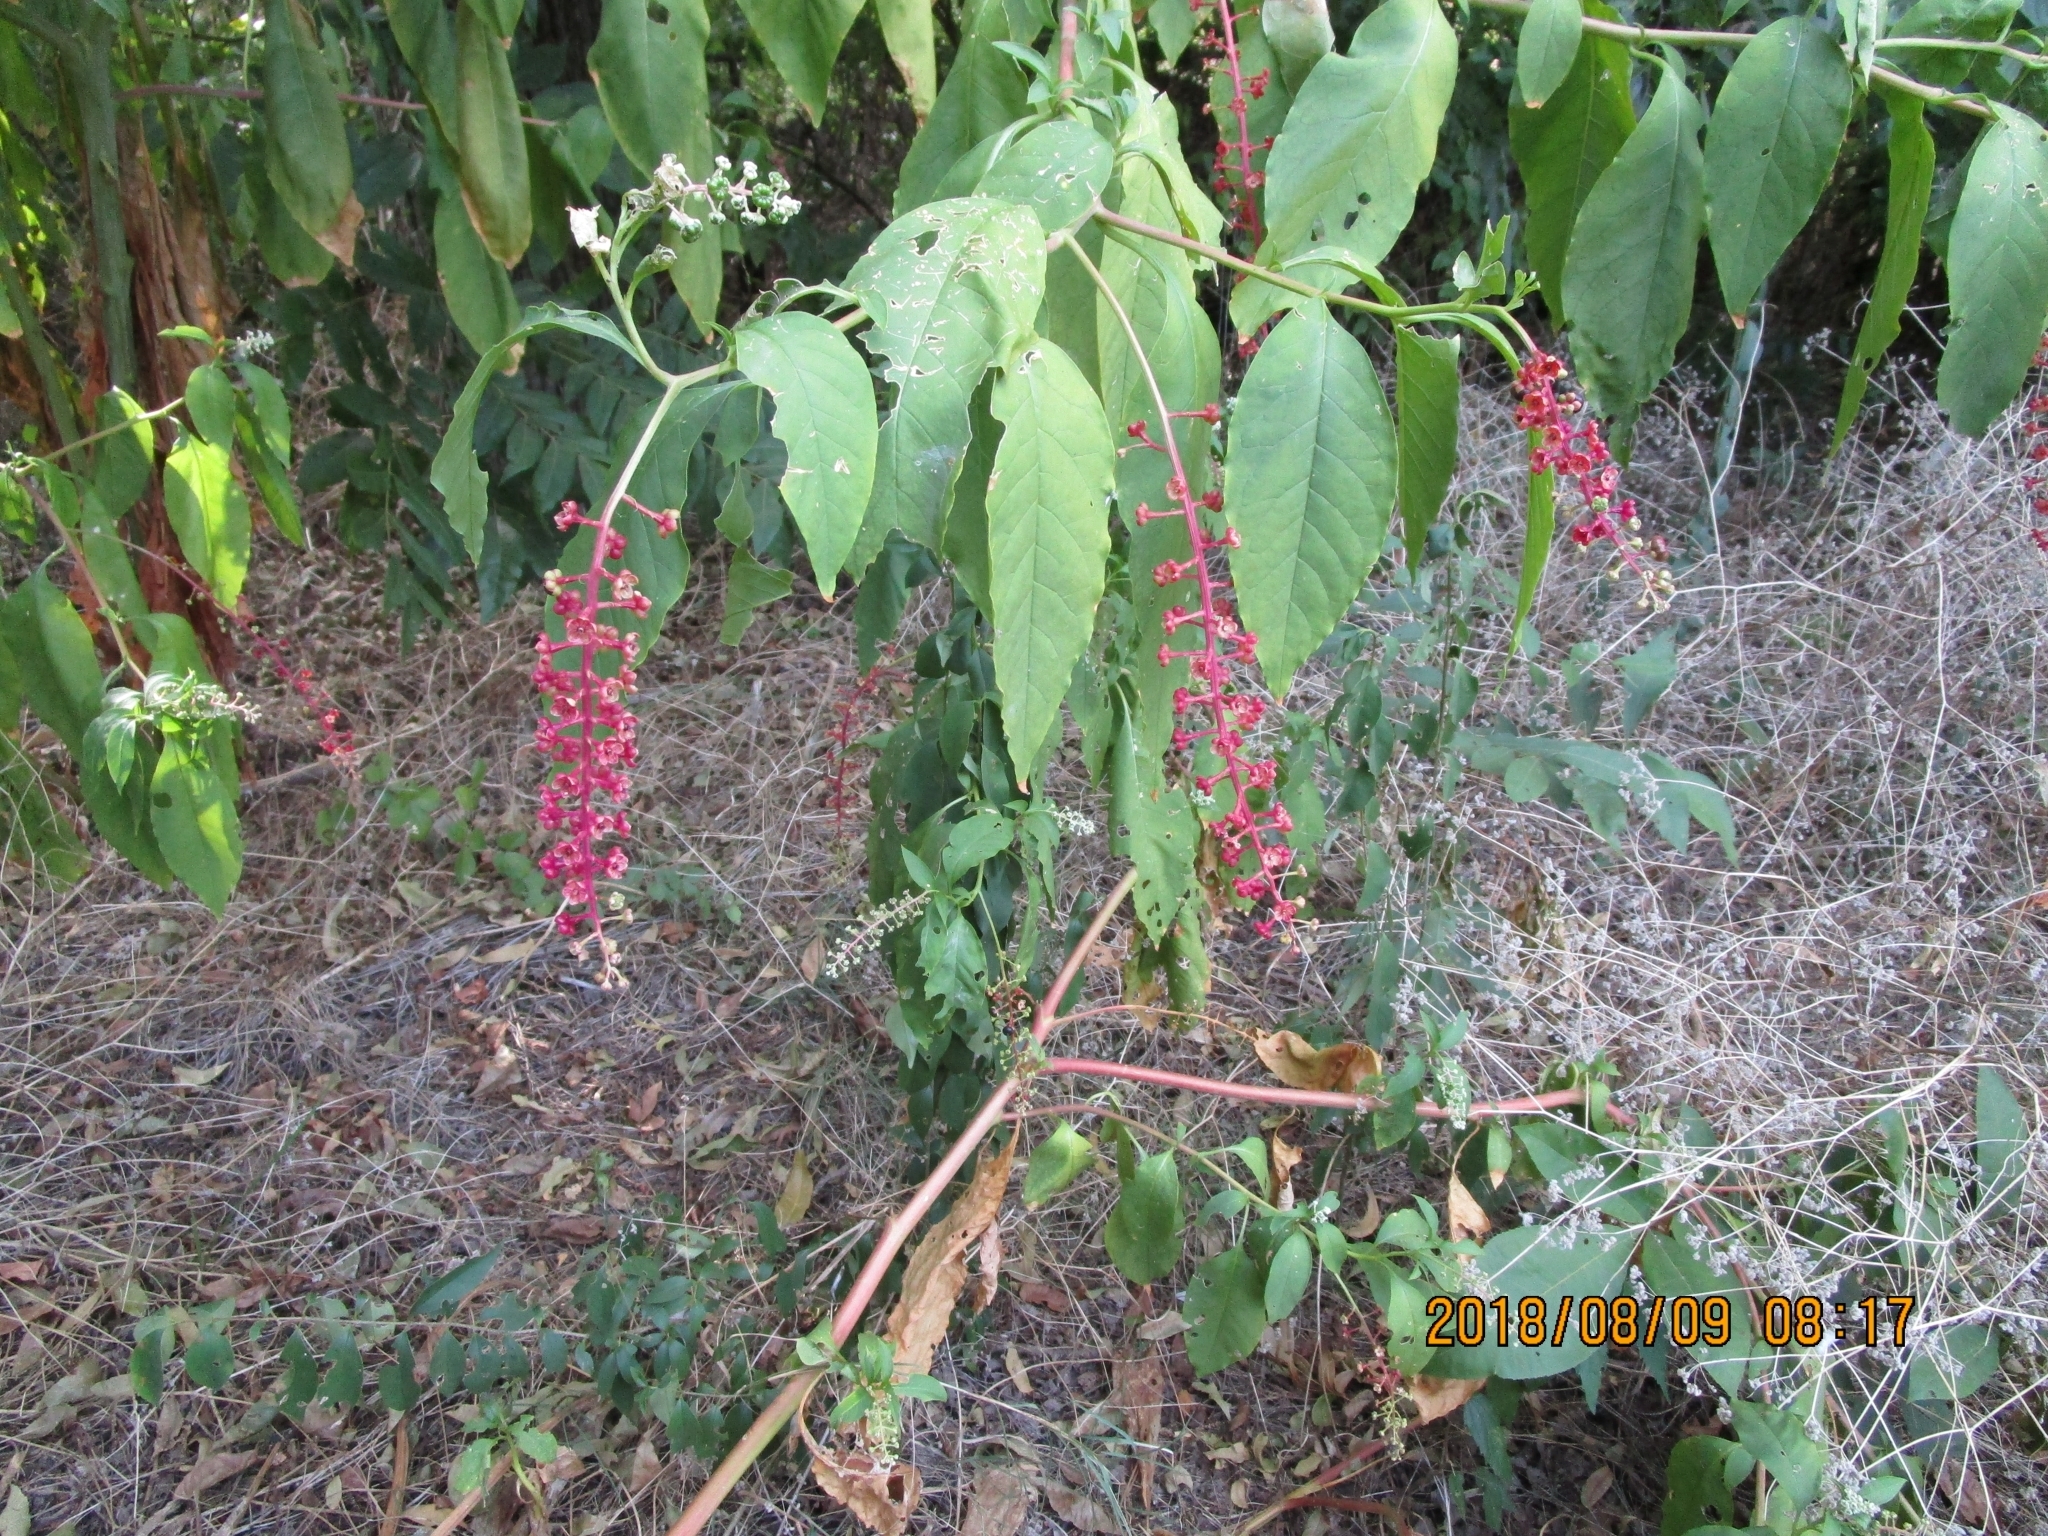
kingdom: Plantae
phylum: Tracheophyta
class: Magnoliopsida
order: Caryophyllales
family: Phytolaccaceae
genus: Phytolacca
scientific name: Phytolacca americana
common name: American pokeweed
